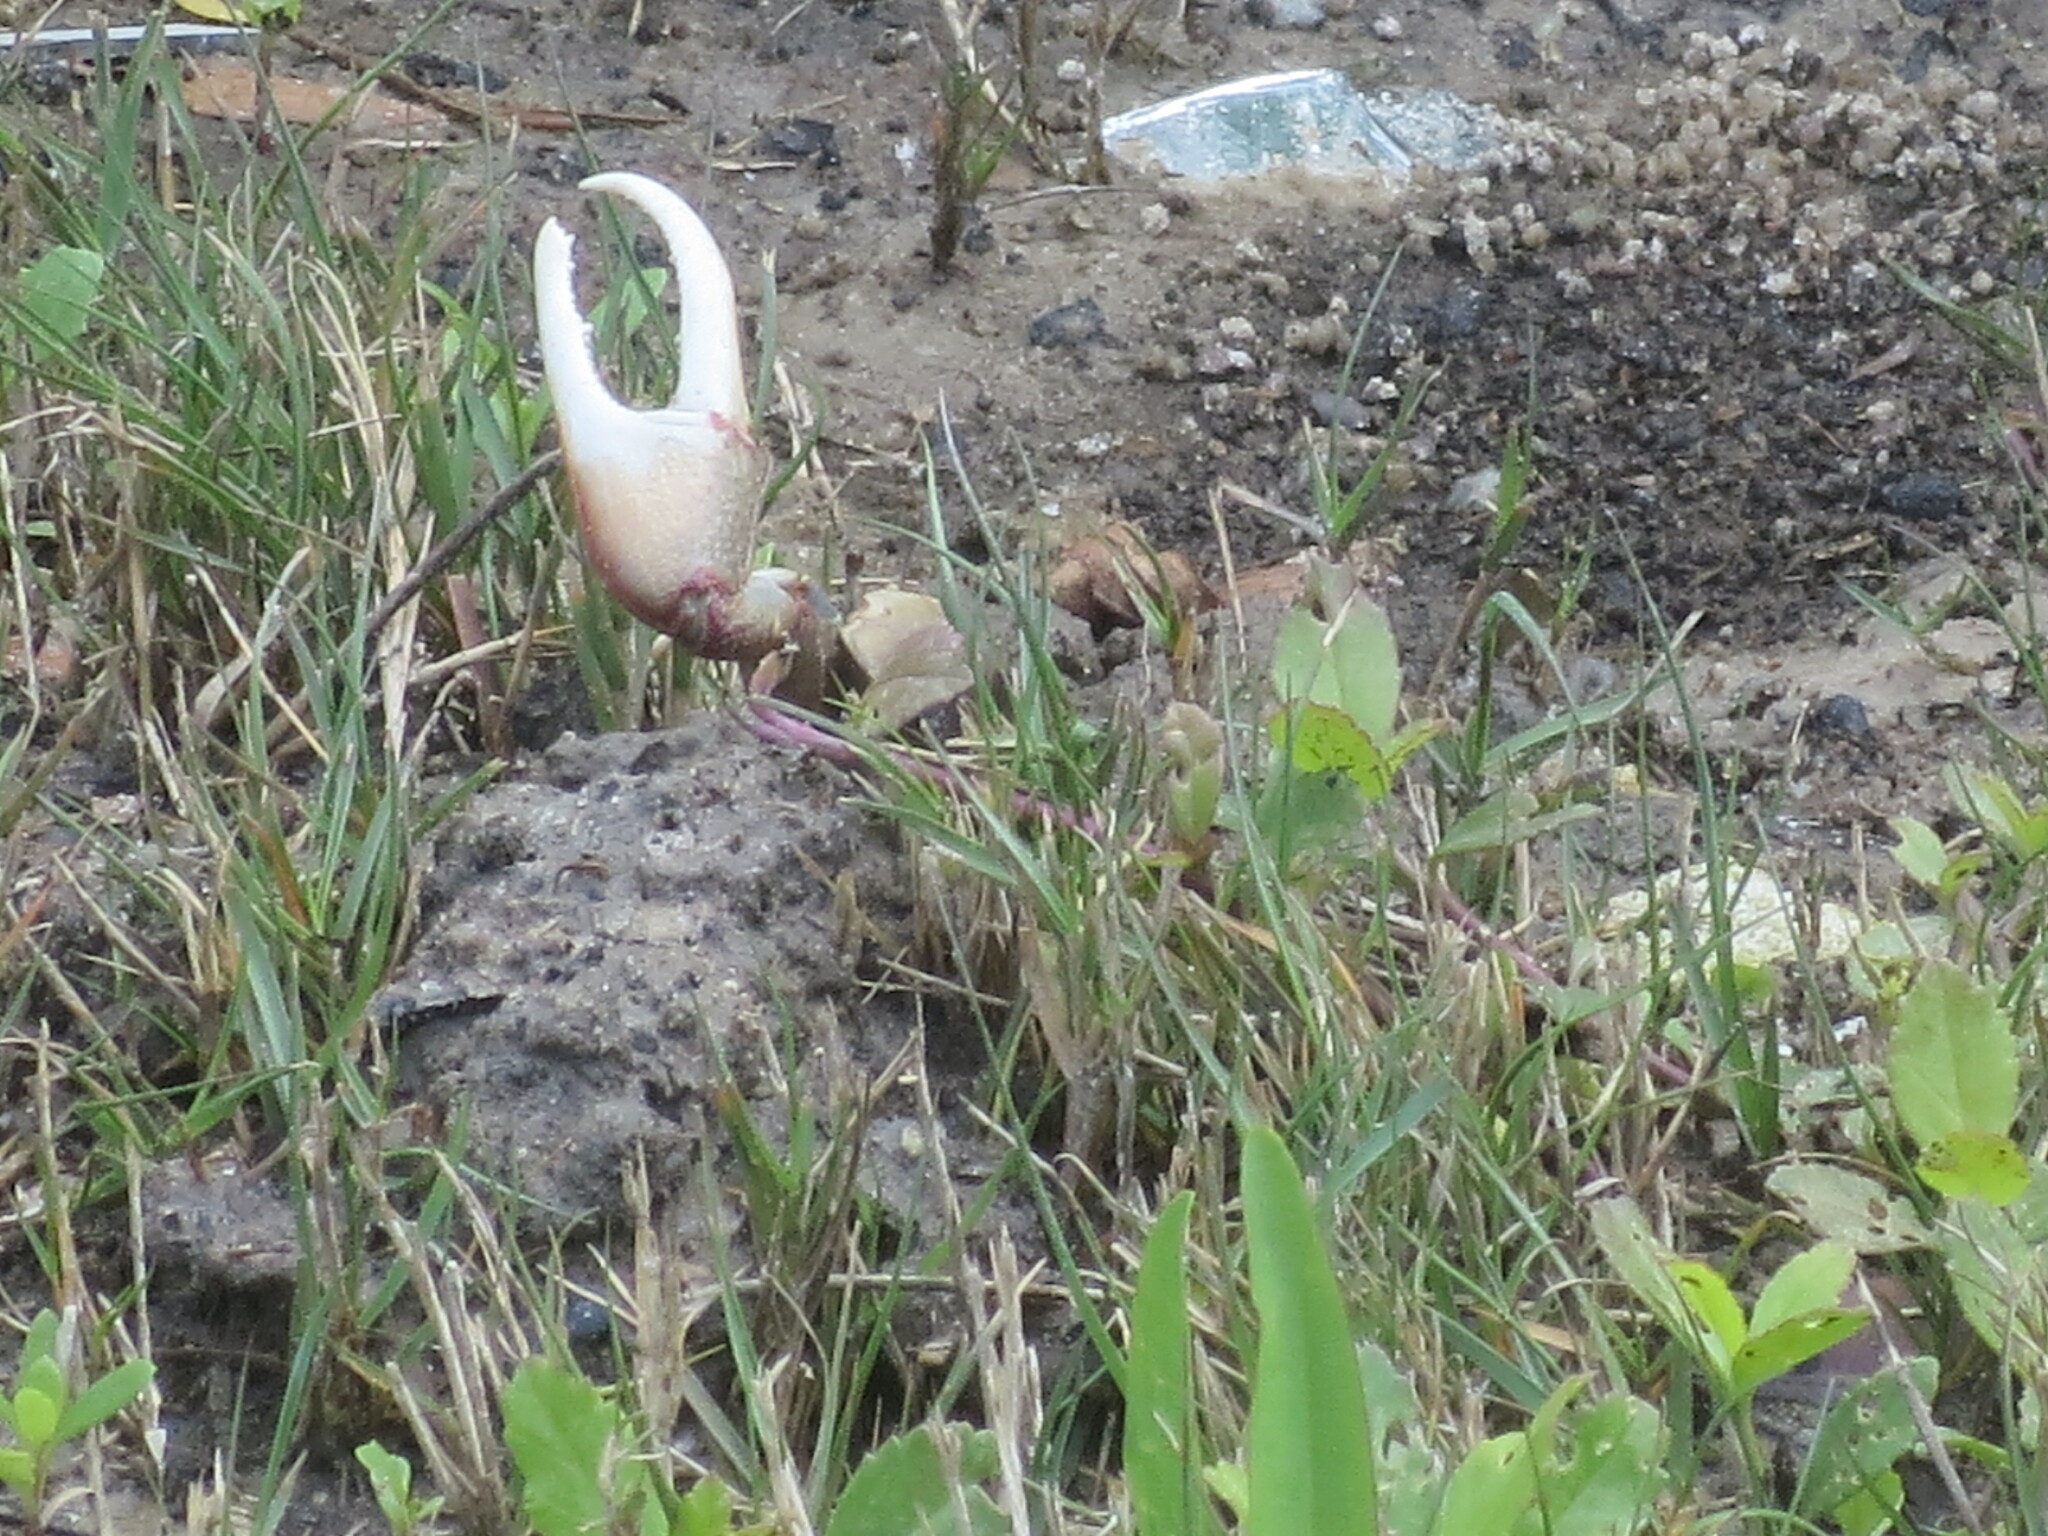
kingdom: Animalia
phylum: Arthropoda
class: Malacostraca
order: Decapoda
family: Ocypodidae
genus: Minuca
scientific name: Minuca minax
